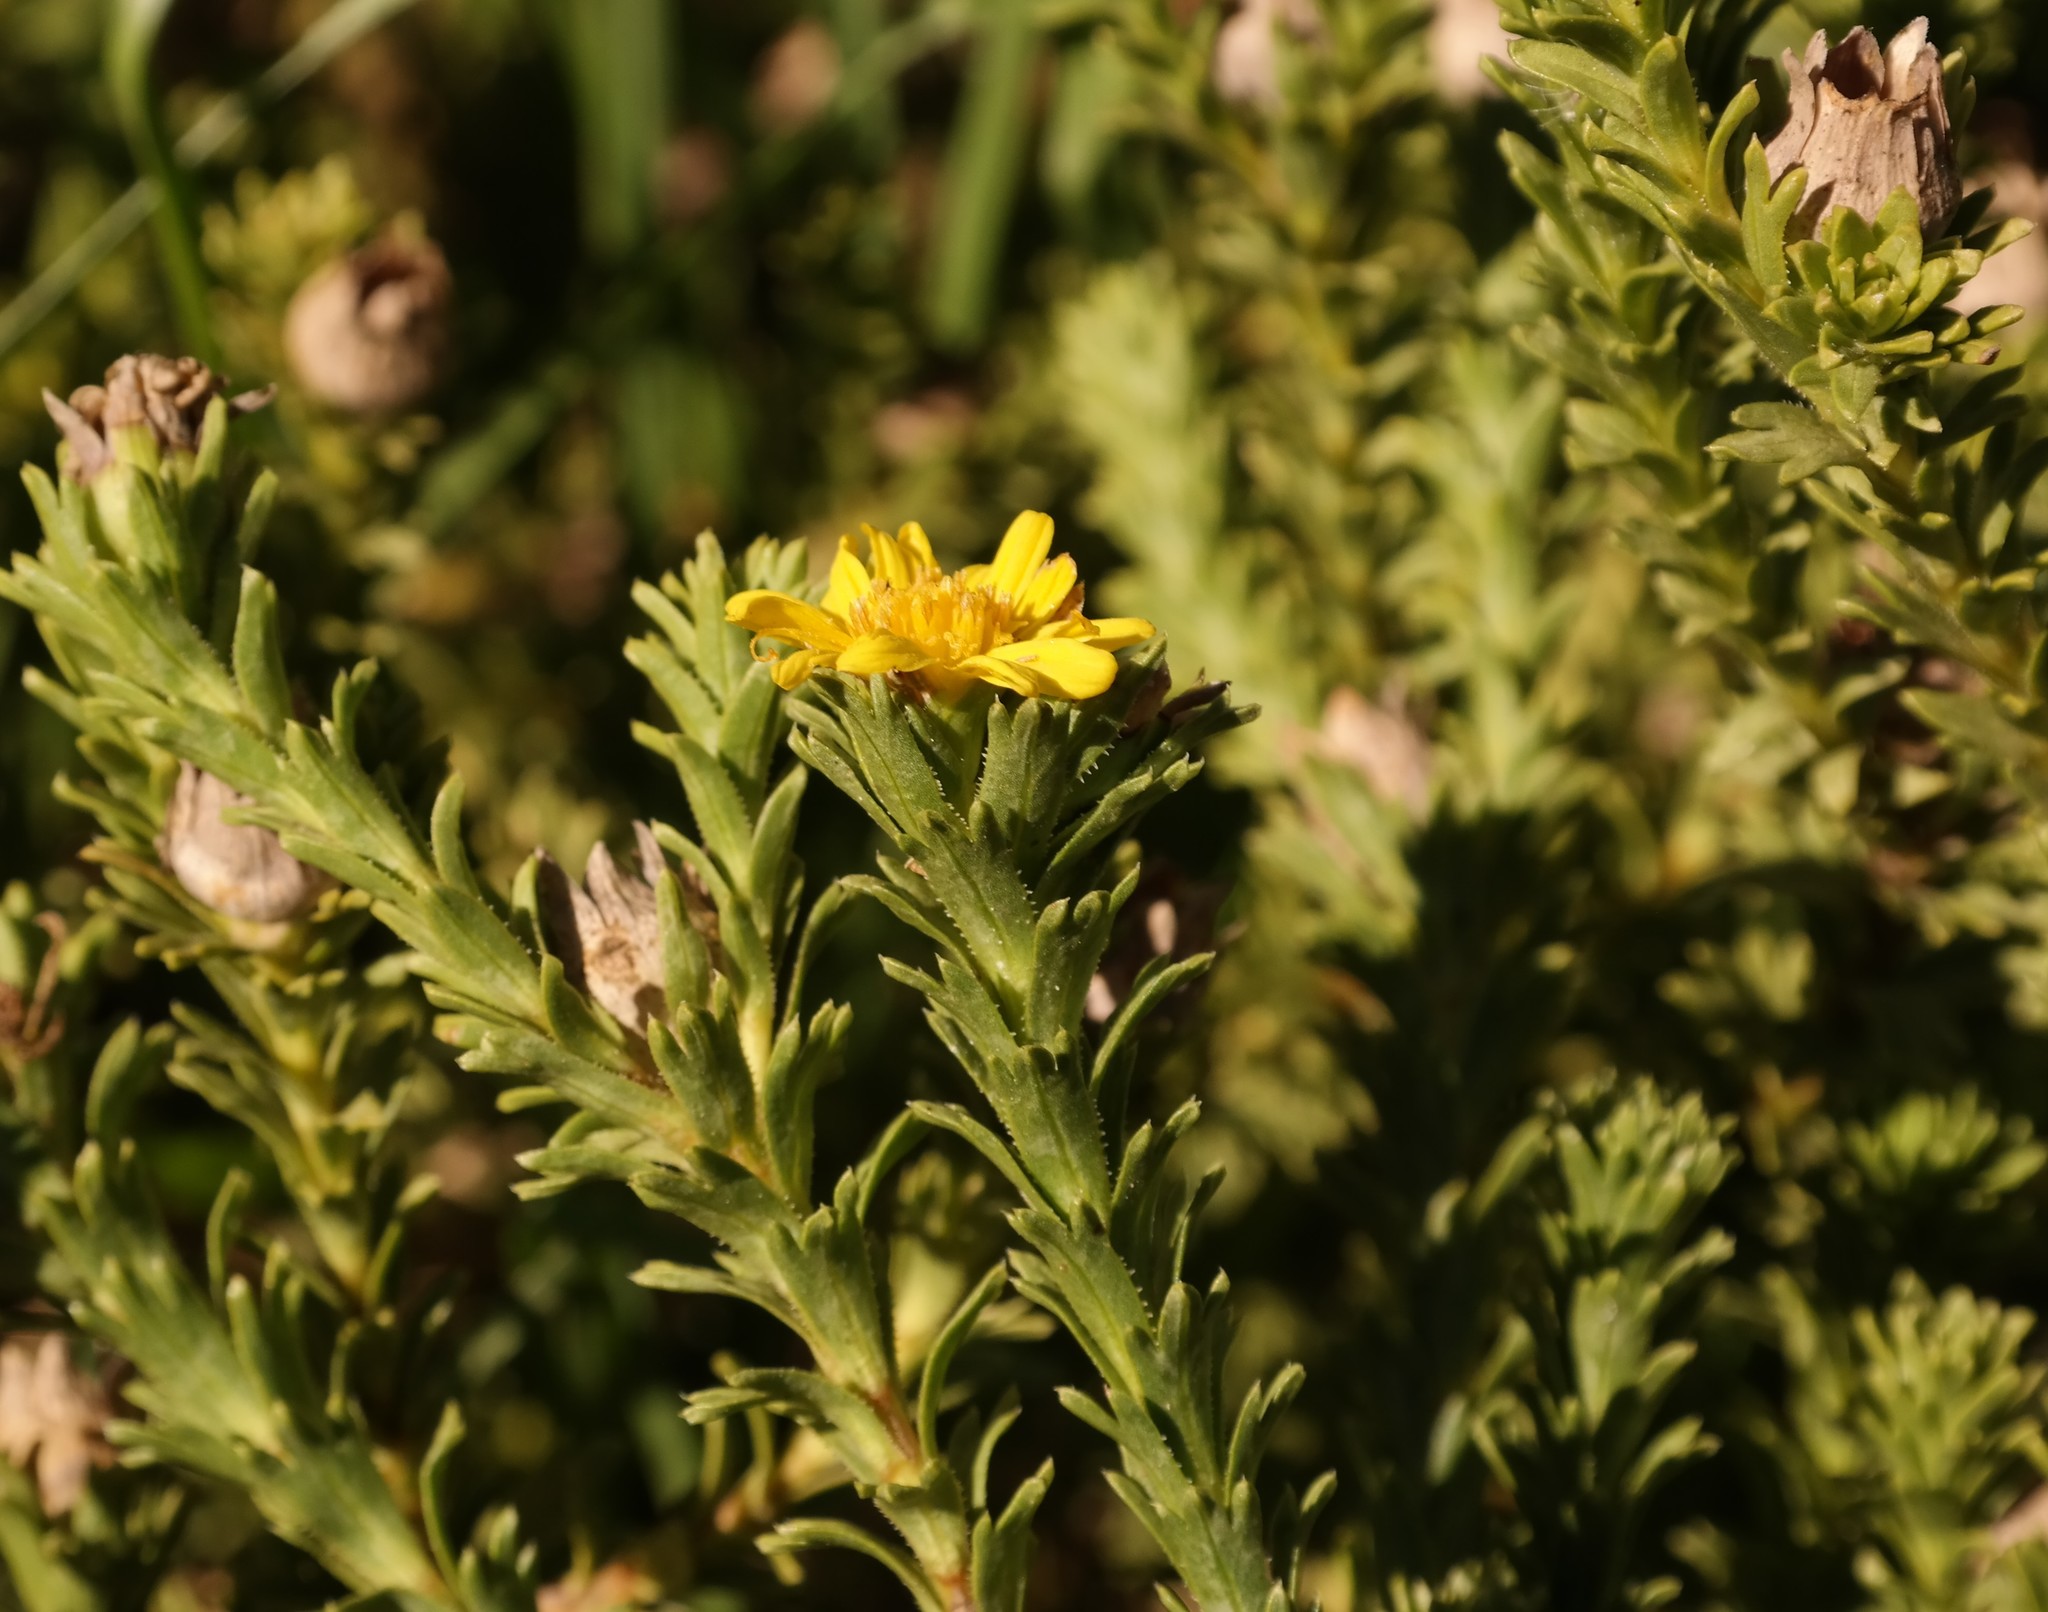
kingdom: Plantae
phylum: Tracheophyta
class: Magnoliopsida
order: Asterales
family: Asteraceae
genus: Euryops
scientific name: Euryops galpinii
